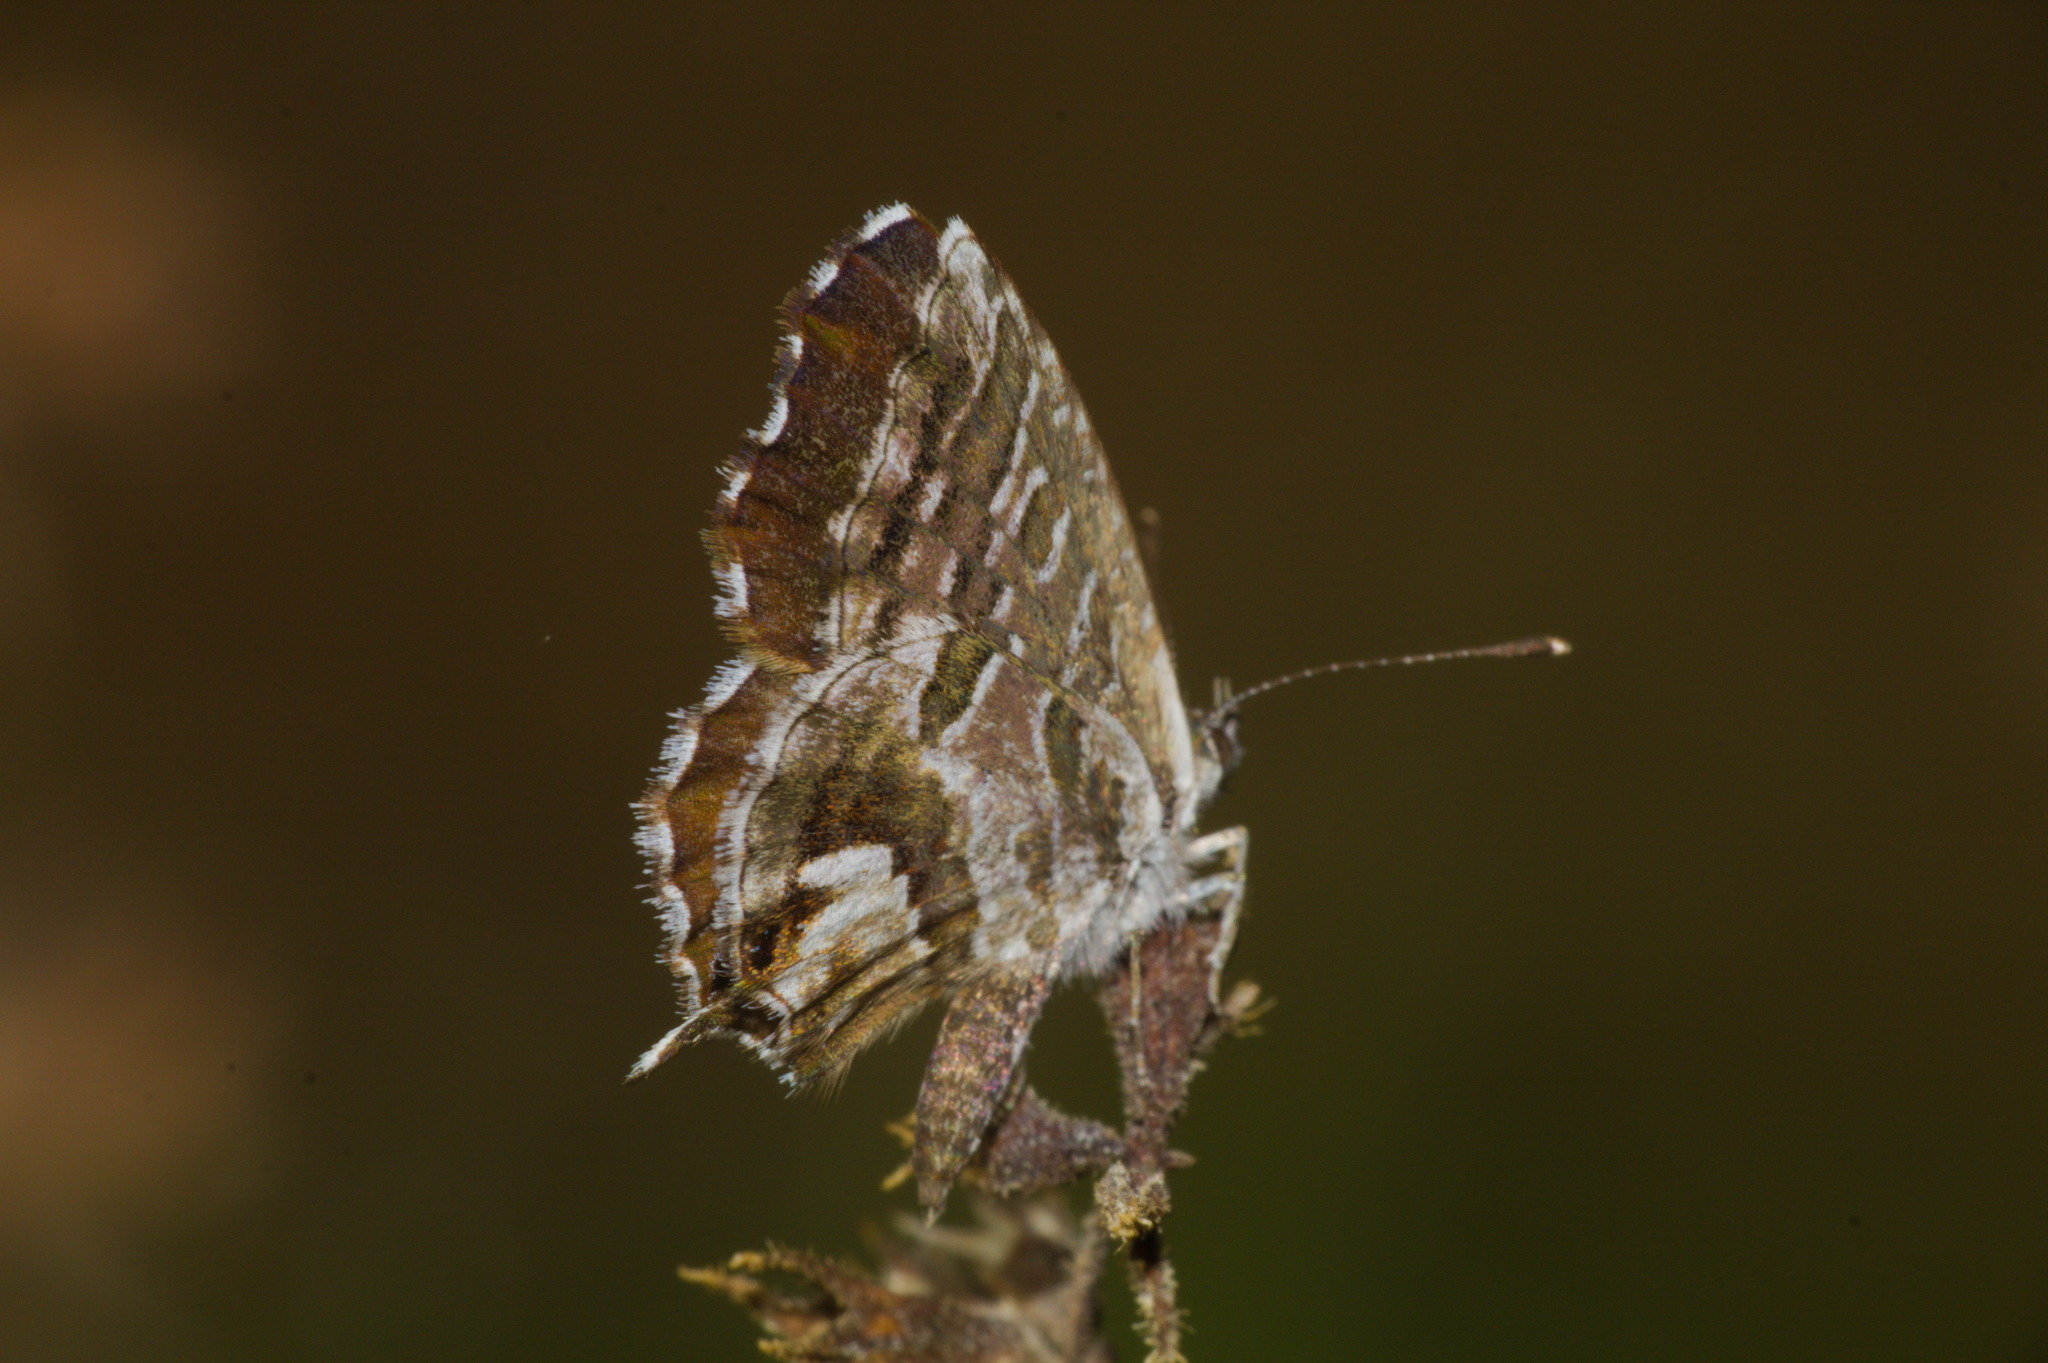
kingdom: Animalia
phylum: Arthropoda
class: Insecta
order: Lepidoptera
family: Lycaenidae
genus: Cacyreus
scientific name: Cacyreus marshalli
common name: Geranium bronze
